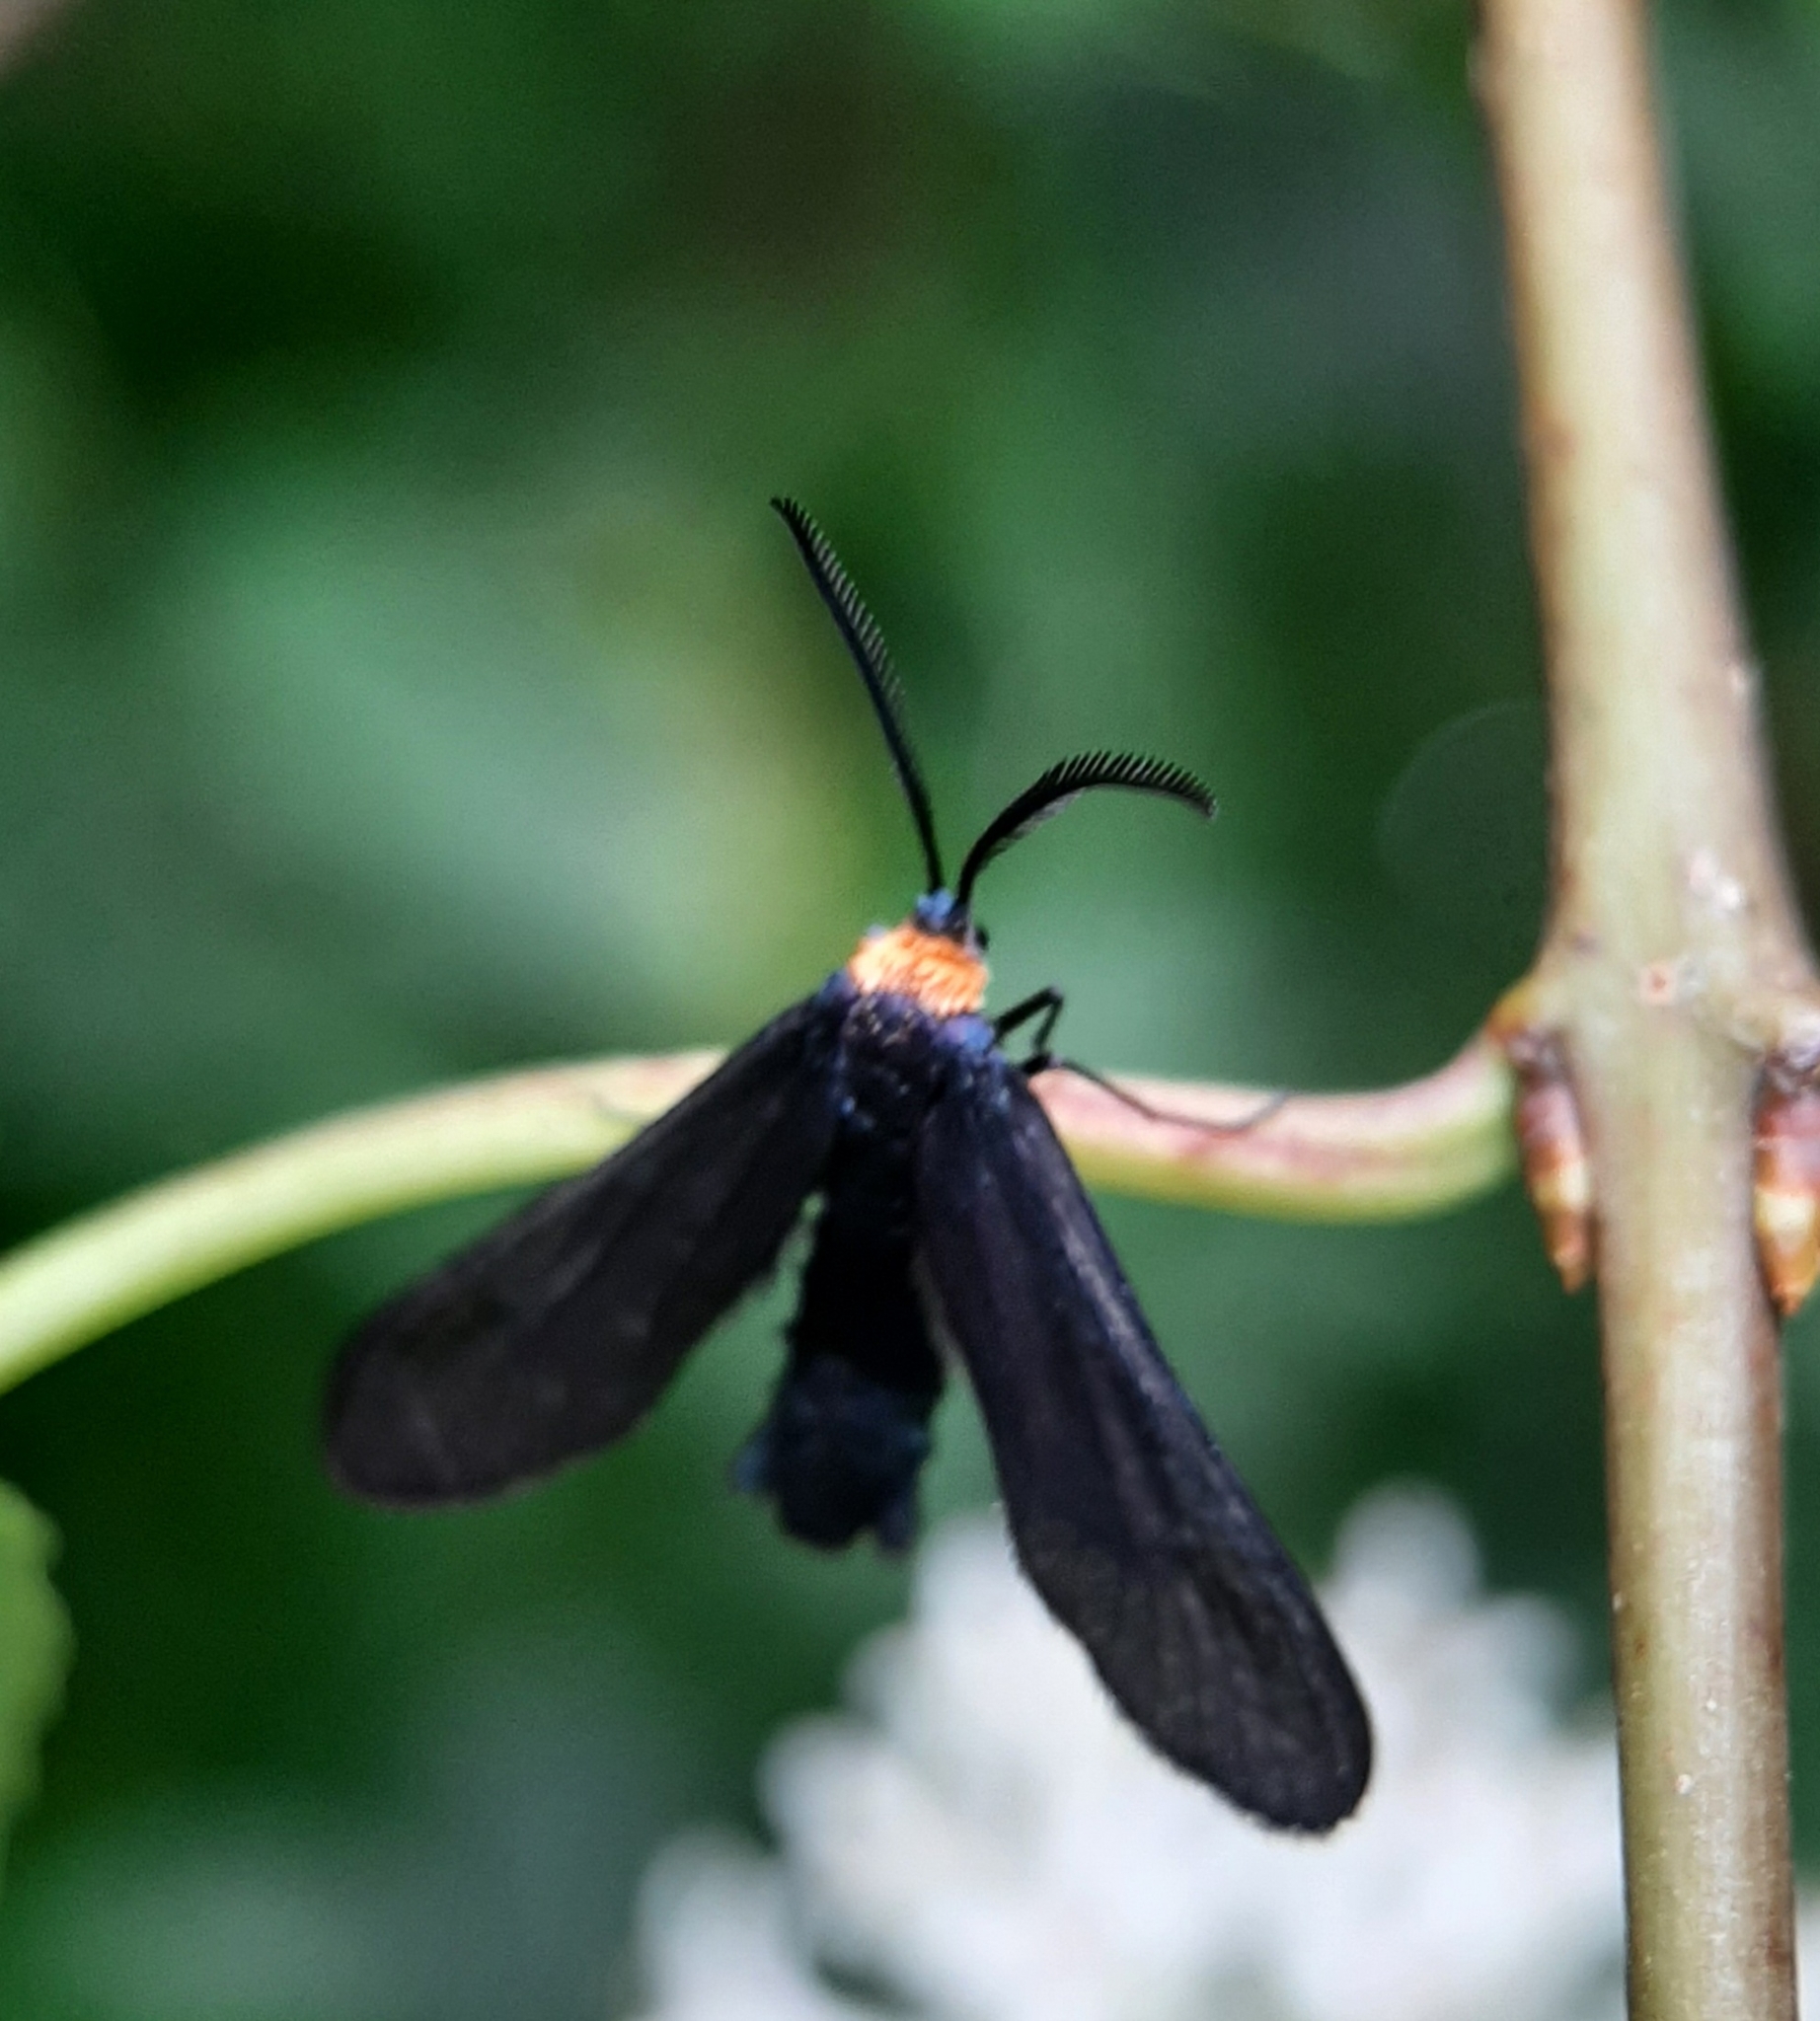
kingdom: Animalia
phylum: Arthropoda
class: Insecta
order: Lepidoptera
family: Zygaenidae
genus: Harrisina
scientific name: Harrisina americana
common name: Grapeleaf skeletonizer moth
